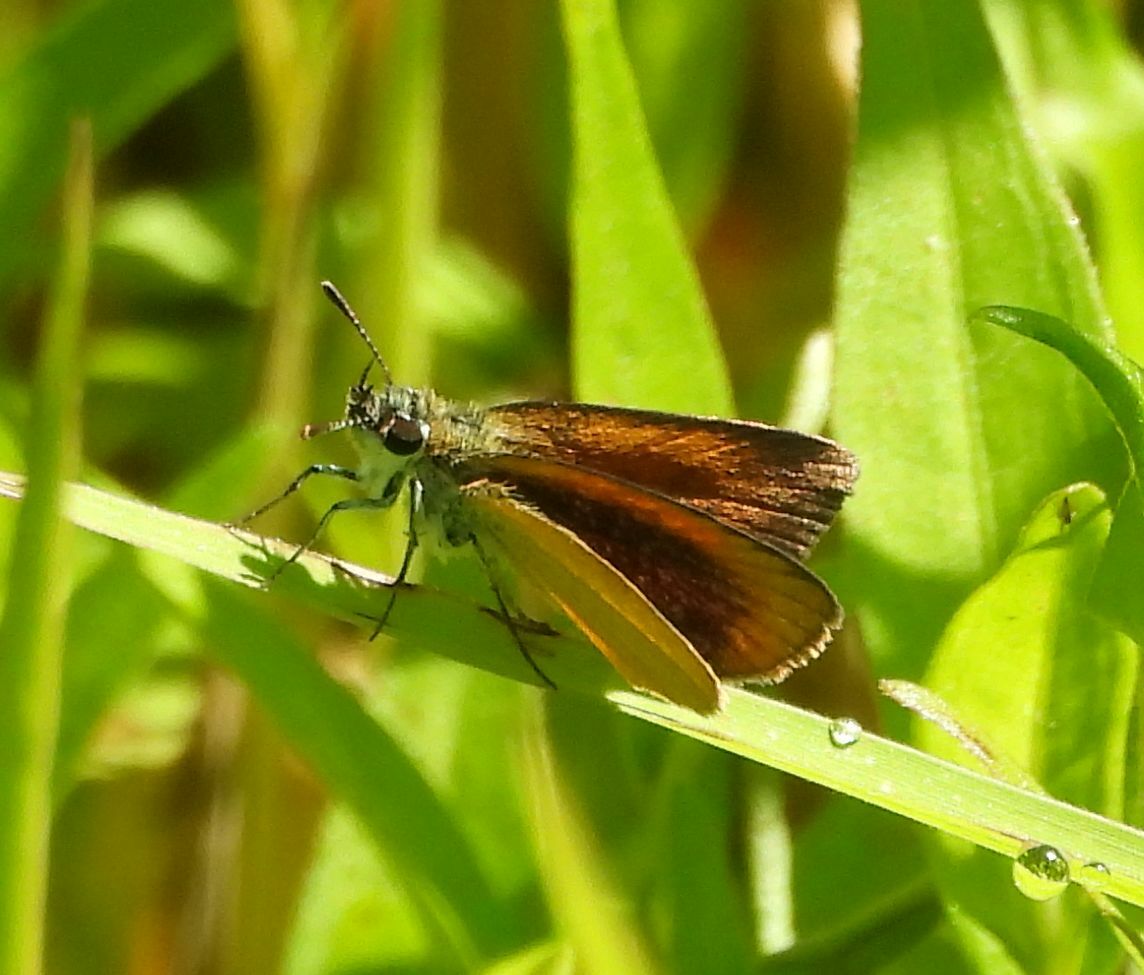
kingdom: Animalia
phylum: Arthropoda
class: Insecta
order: Lepidoptera
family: Hesperiidae
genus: Ancyloxypha
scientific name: Ancyloxypha numitor
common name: Least skipper
